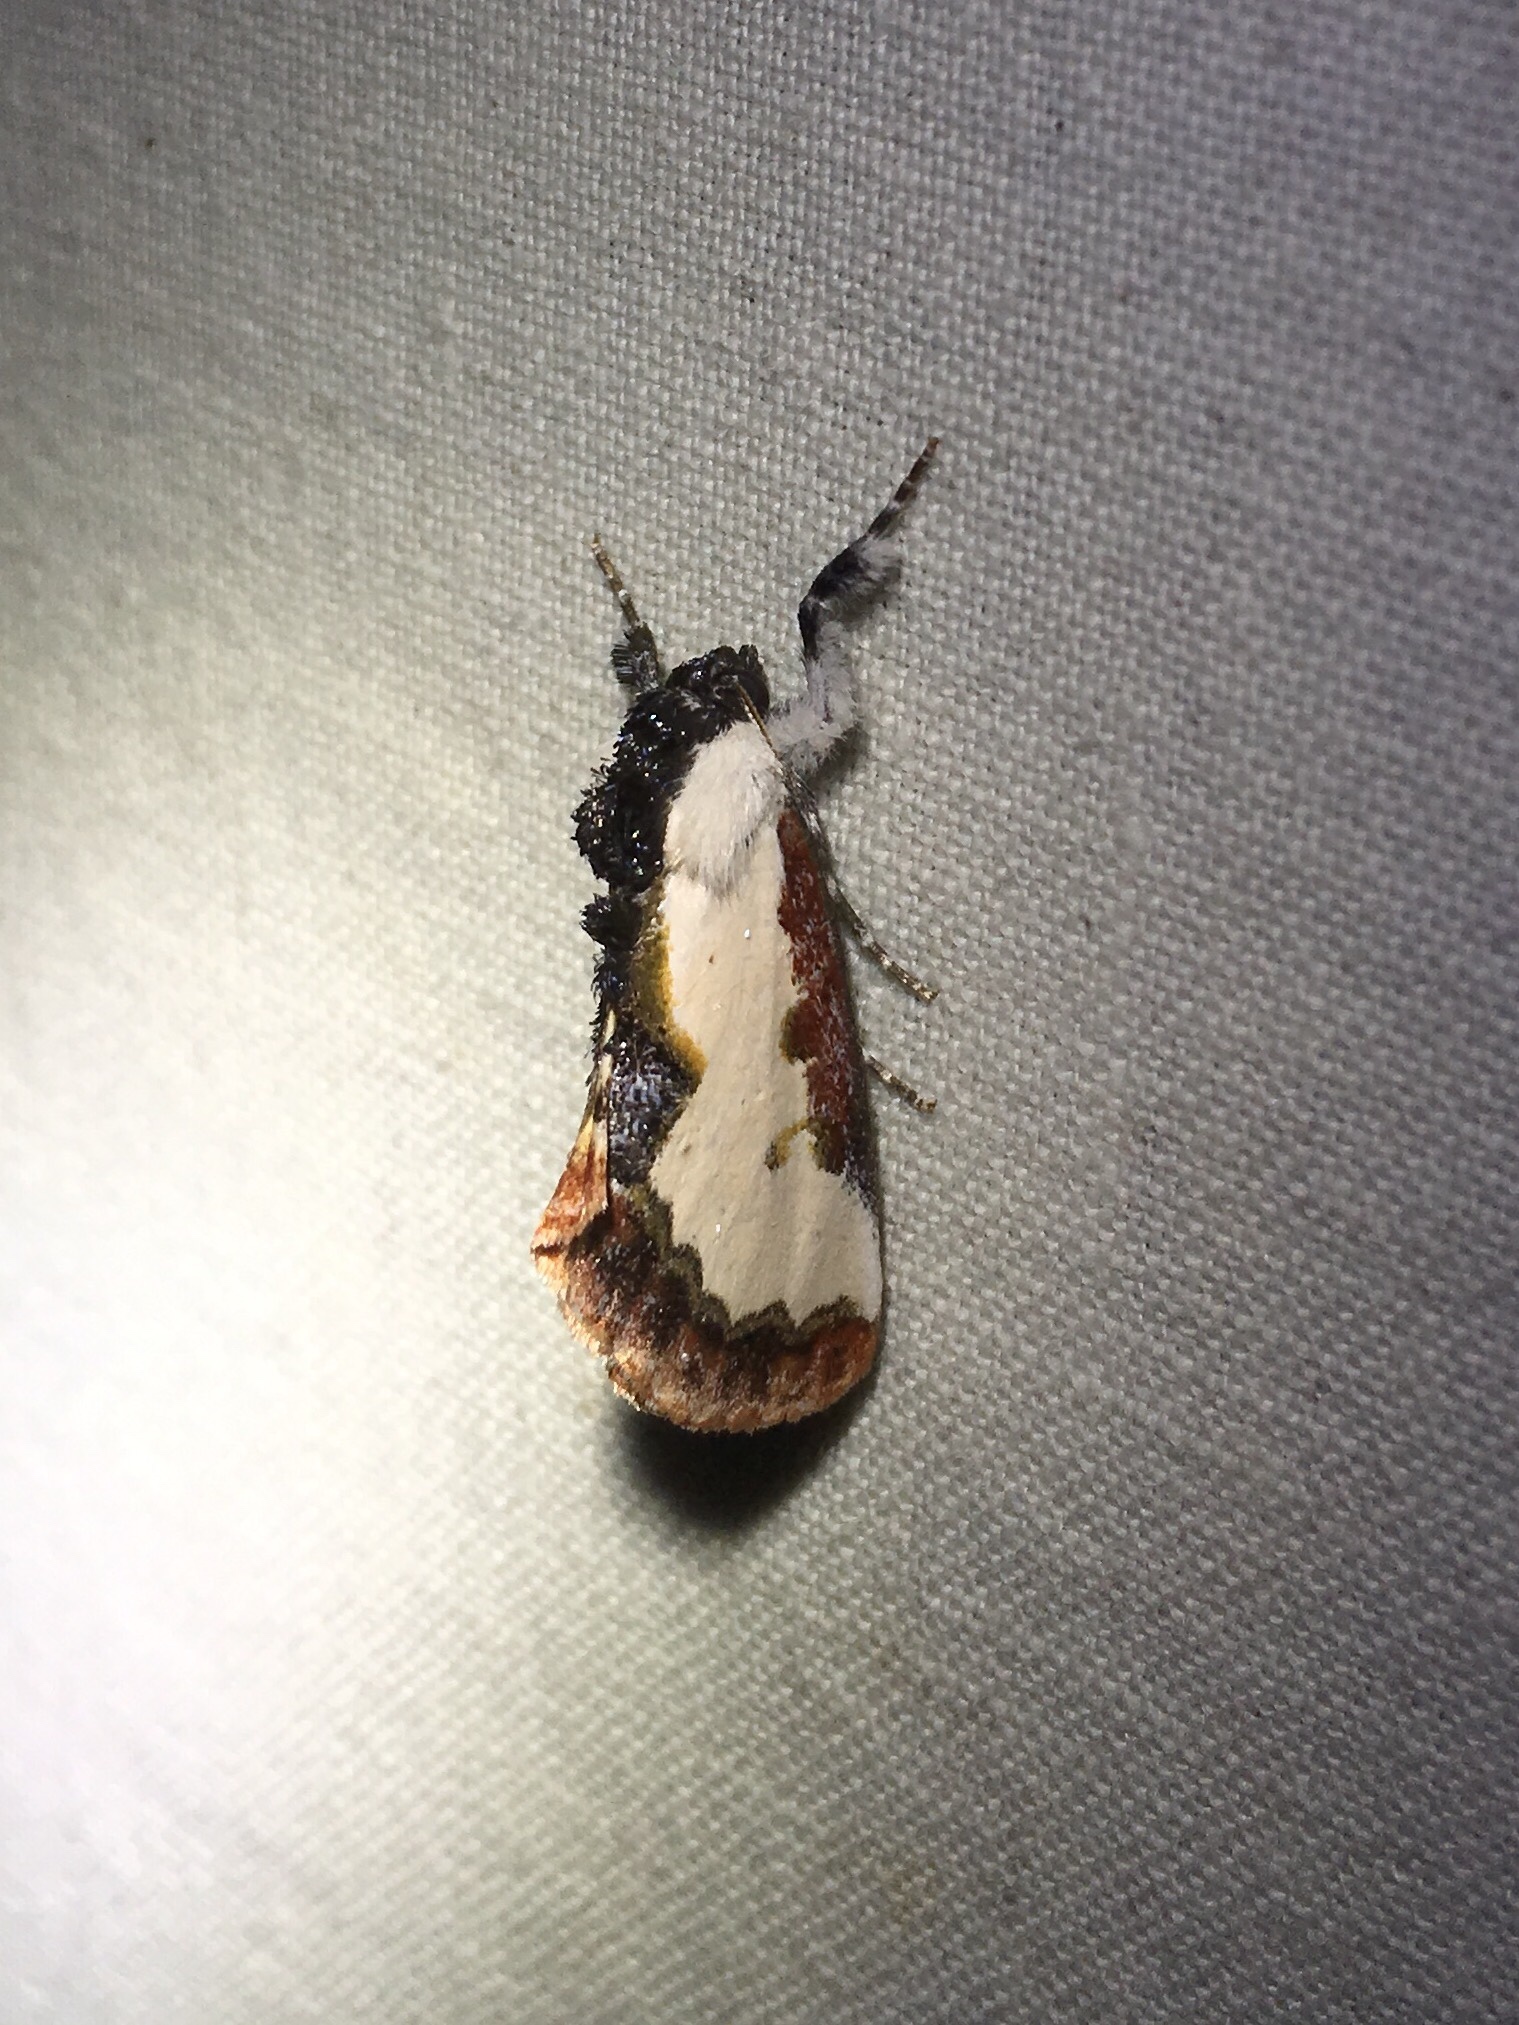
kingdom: Animalia
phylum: Arthropoda
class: Insecta
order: Lepidoptera
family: Noctuidae
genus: Eudryas
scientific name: Eudryas unio
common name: Pearly wood-nymph
